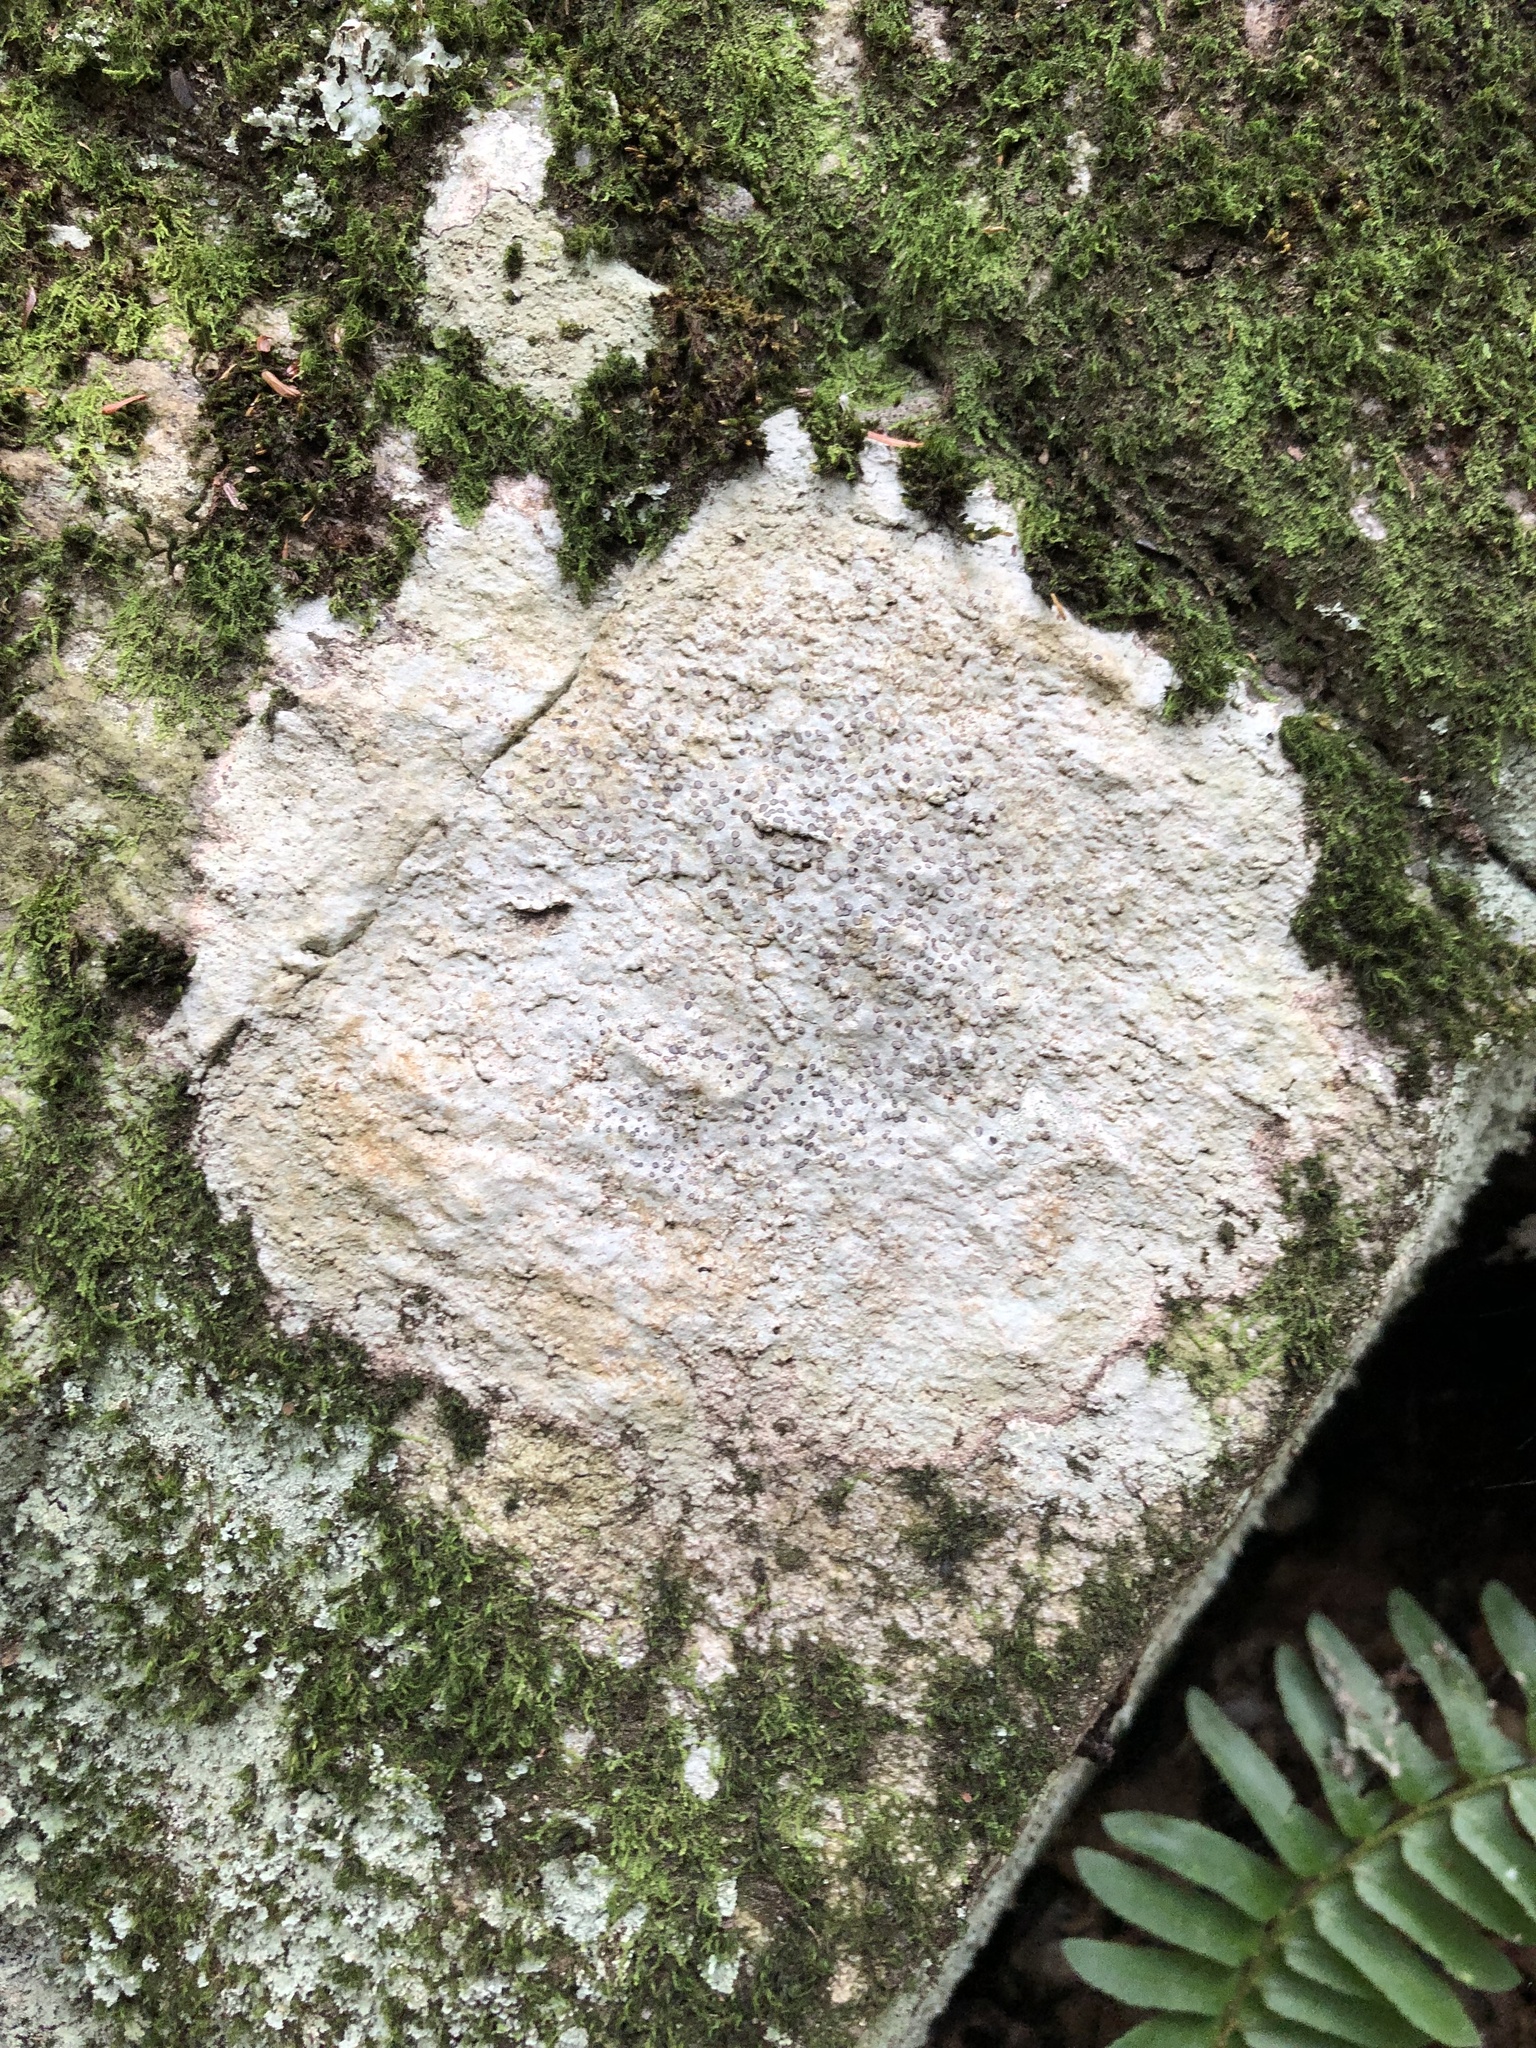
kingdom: Fungi
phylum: Ascomycota
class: Lecanoromycetes
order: Lecideales
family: Lecideaceae
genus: Porpidia
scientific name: Porpidia albocaerulescens
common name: Smokey-eyed boulder lichen
